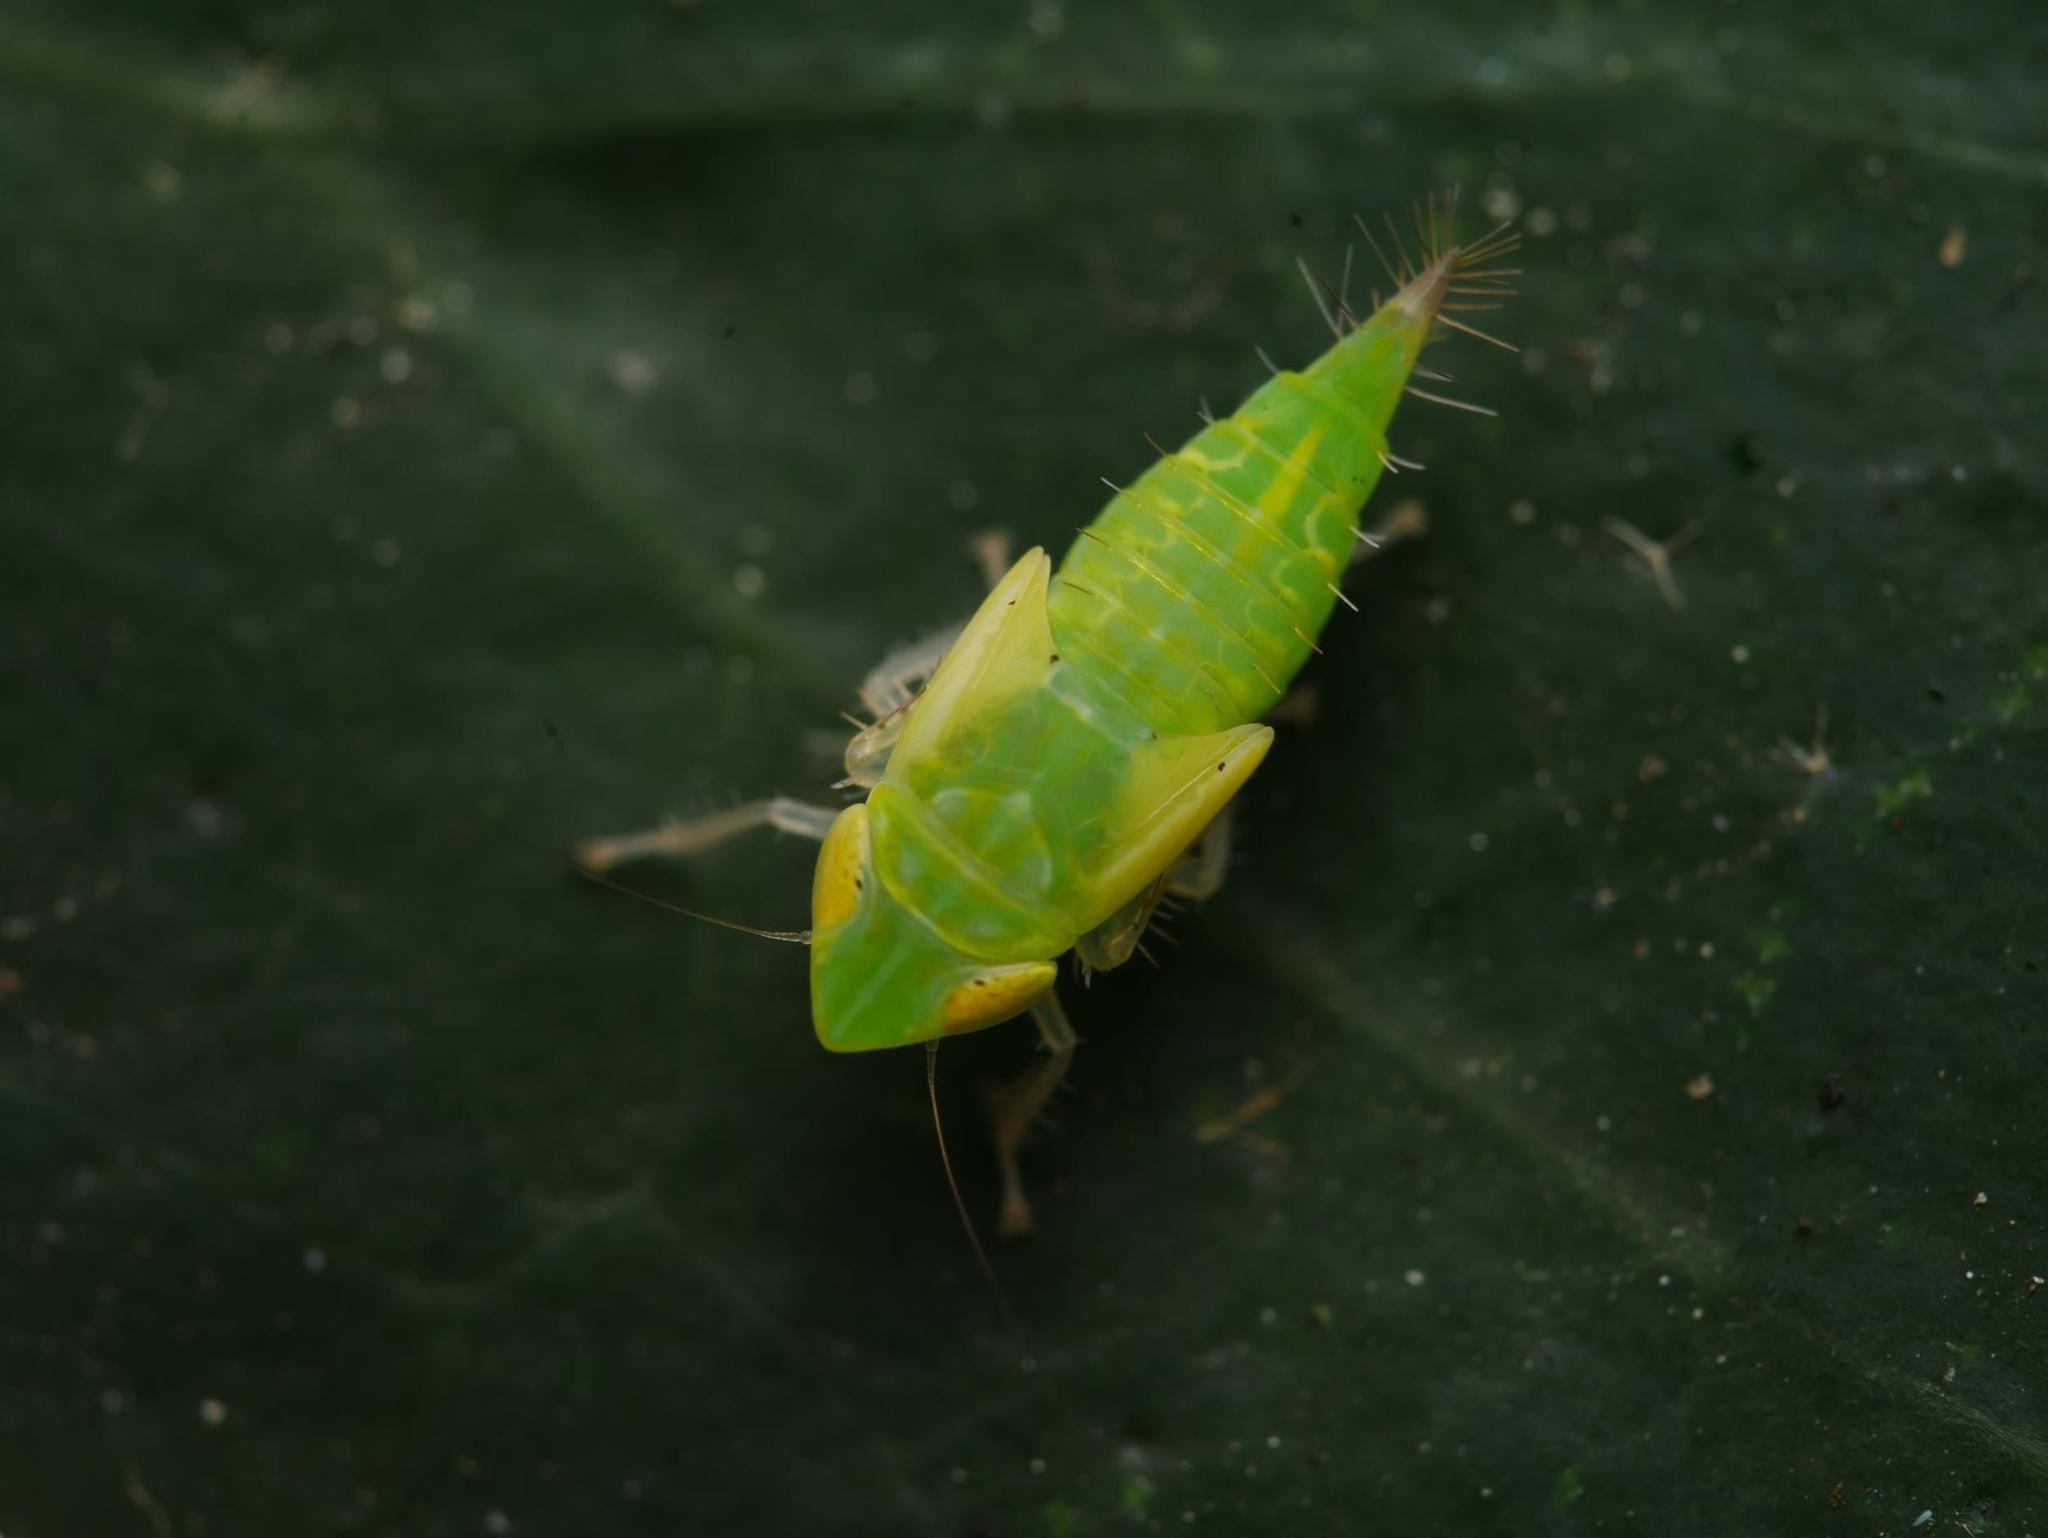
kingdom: Animalia
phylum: Arthropoda
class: Insecta
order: Hemiptera
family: Cicadellidae
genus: Synophropsis
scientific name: Synophropsis lauri
